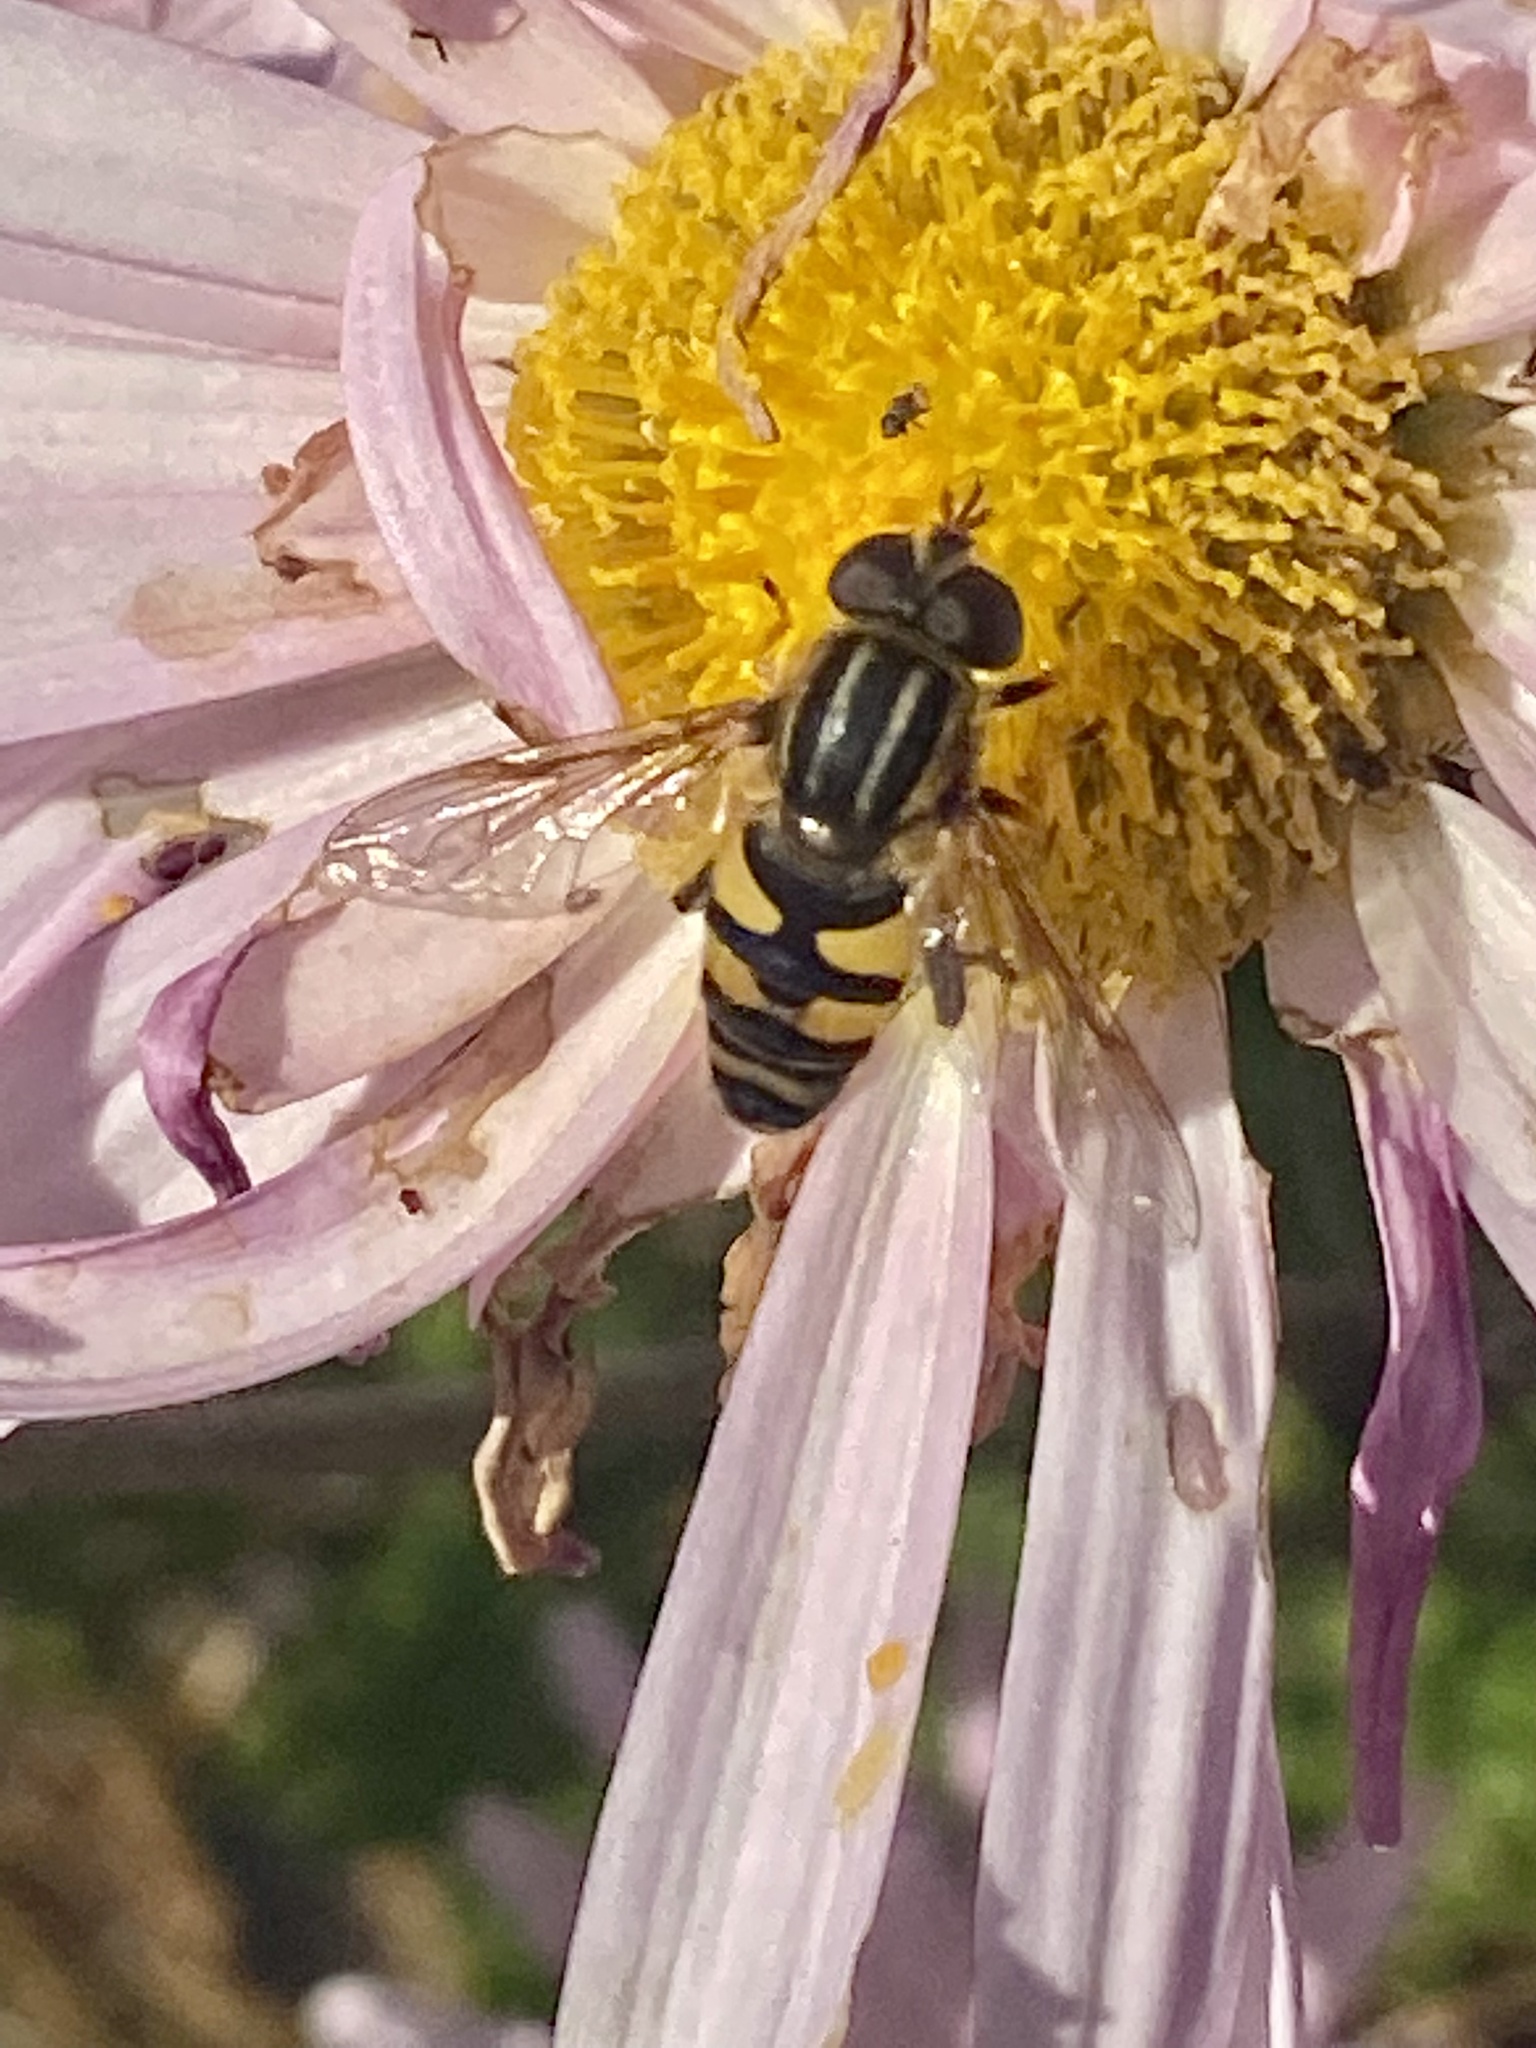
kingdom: Animalia
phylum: Arthropoda
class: Insecta
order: Diptera
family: Syrphidae
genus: Helophilus
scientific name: Helophilus fasciatus
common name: Narrow-headed marsh fly
